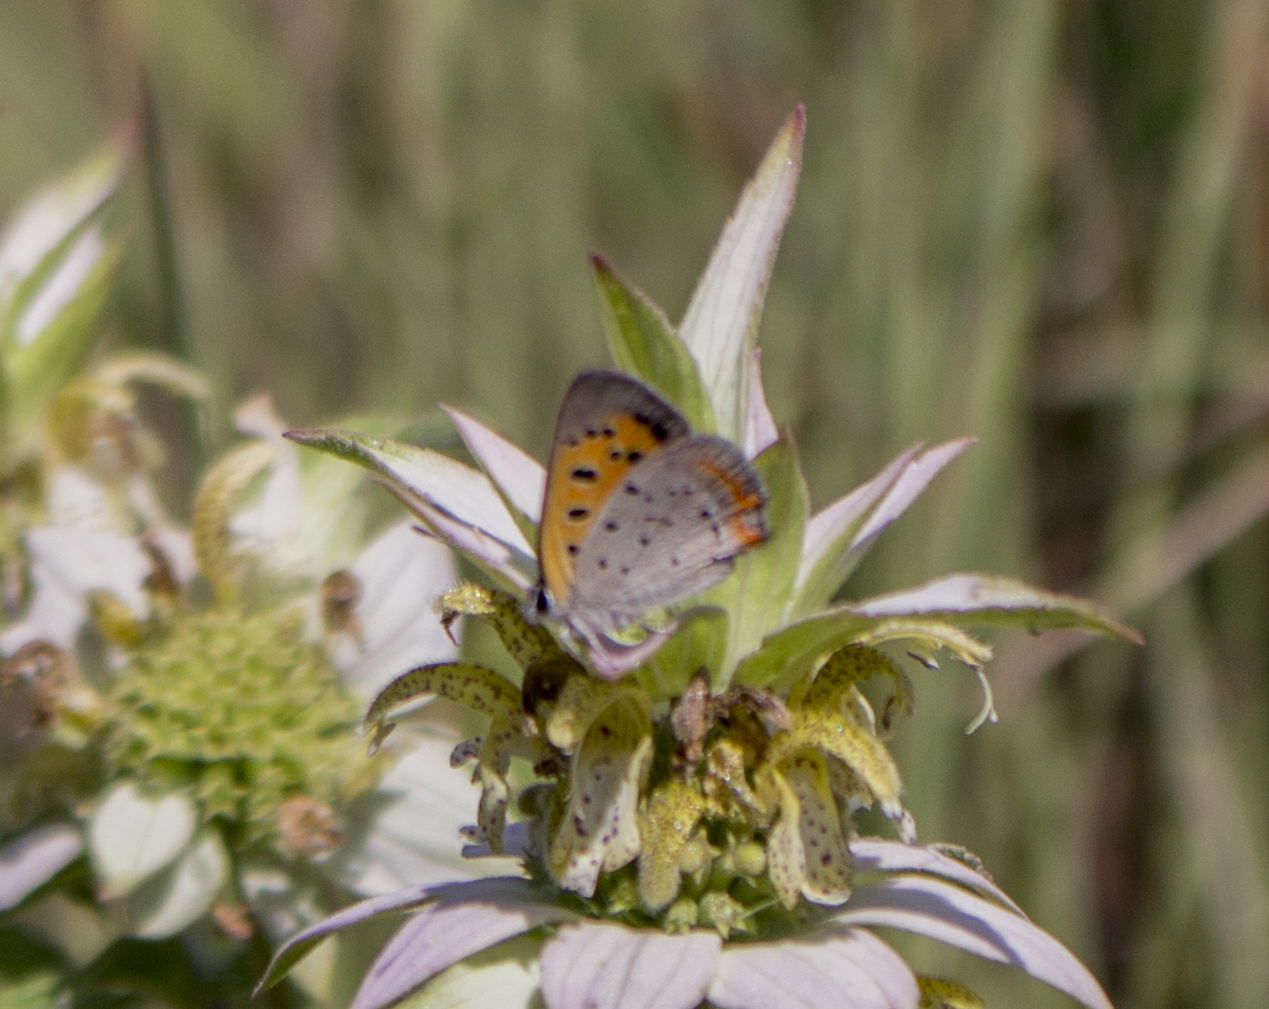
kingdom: Animalia
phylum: Arthropoda
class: Insecta
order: Lepidoptera
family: Lycaenidae
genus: Lycaena
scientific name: Lycaena hypophlaeas
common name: American copper
